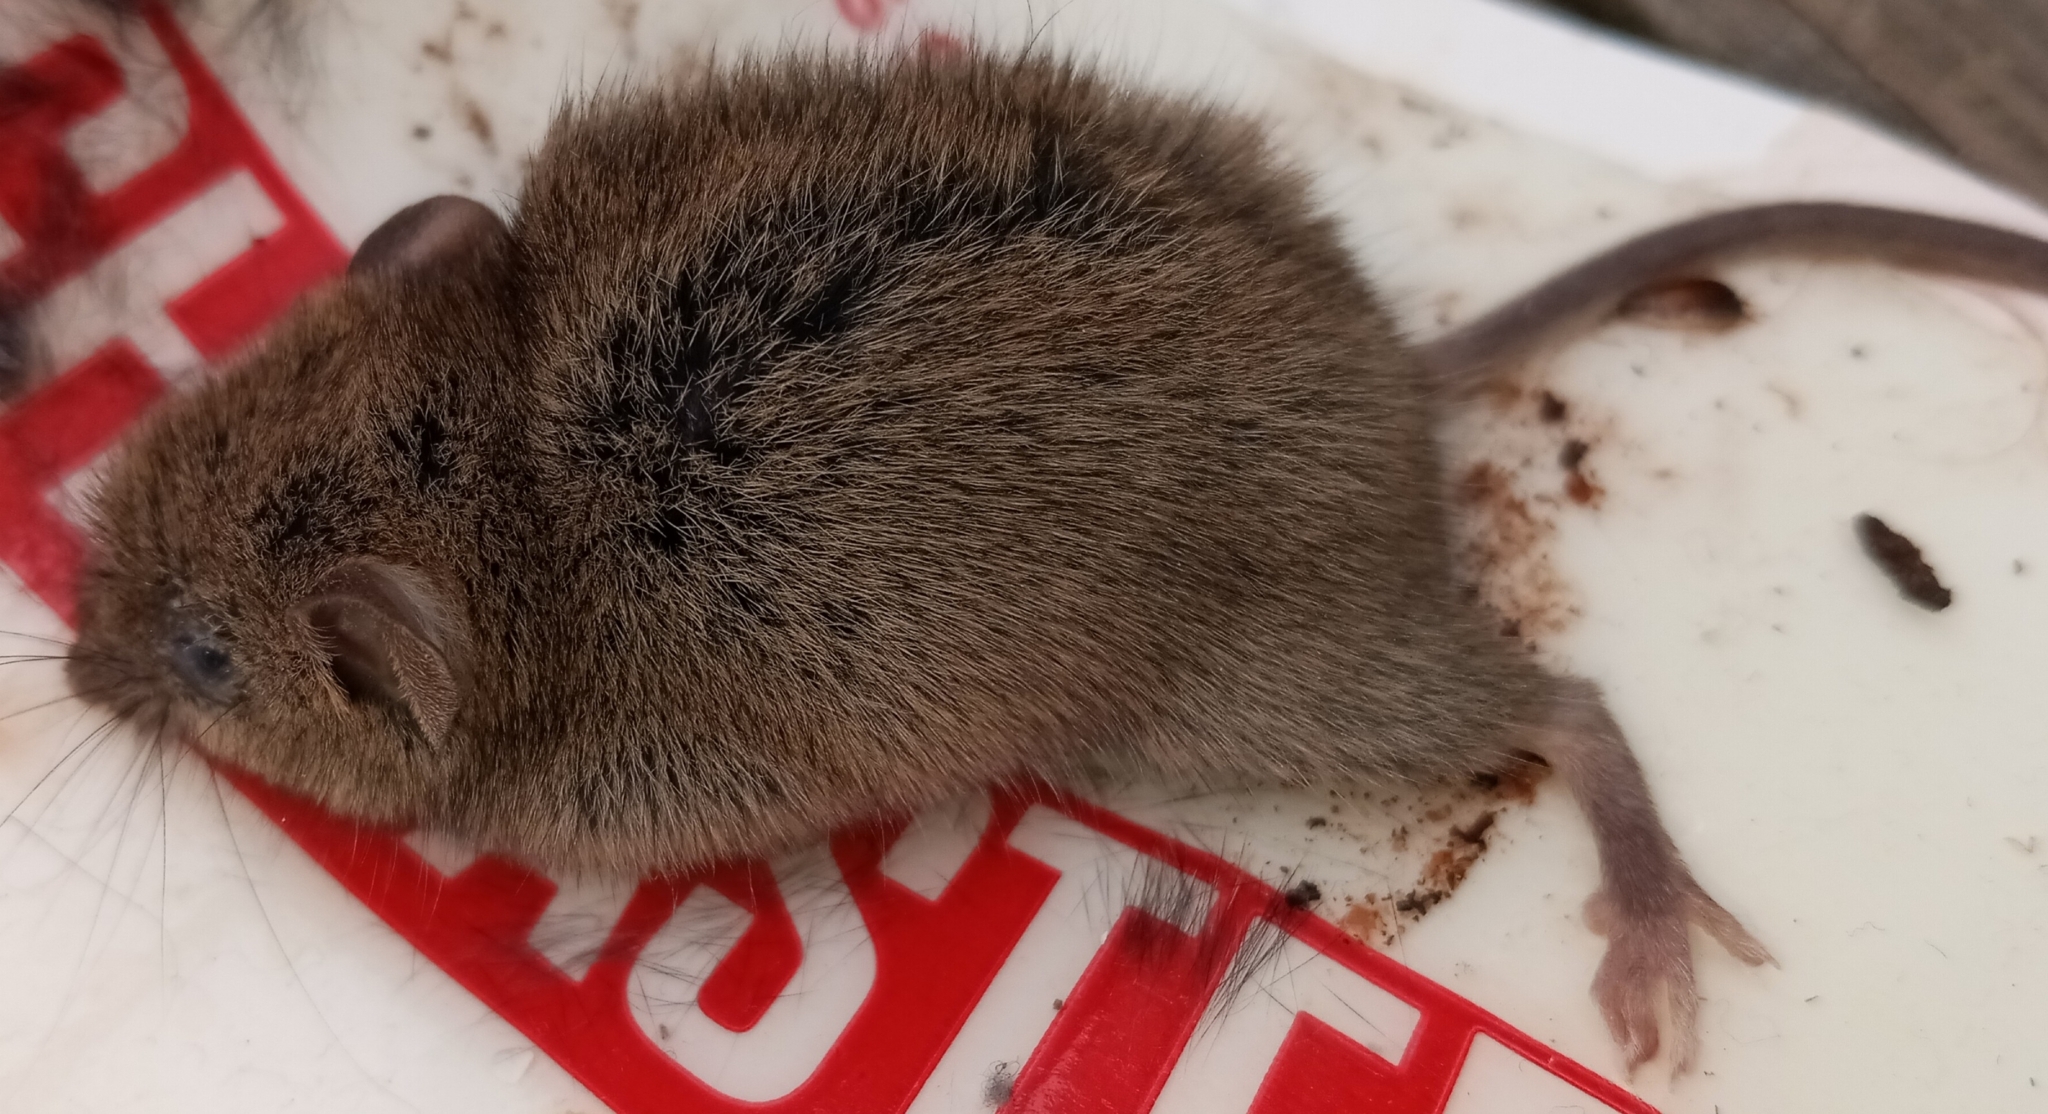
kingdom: Animalia
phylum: Chordata
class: Mammalia
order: Rodentia
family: Muridae
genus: Mus
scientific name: Mus musculus
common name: House mouse
